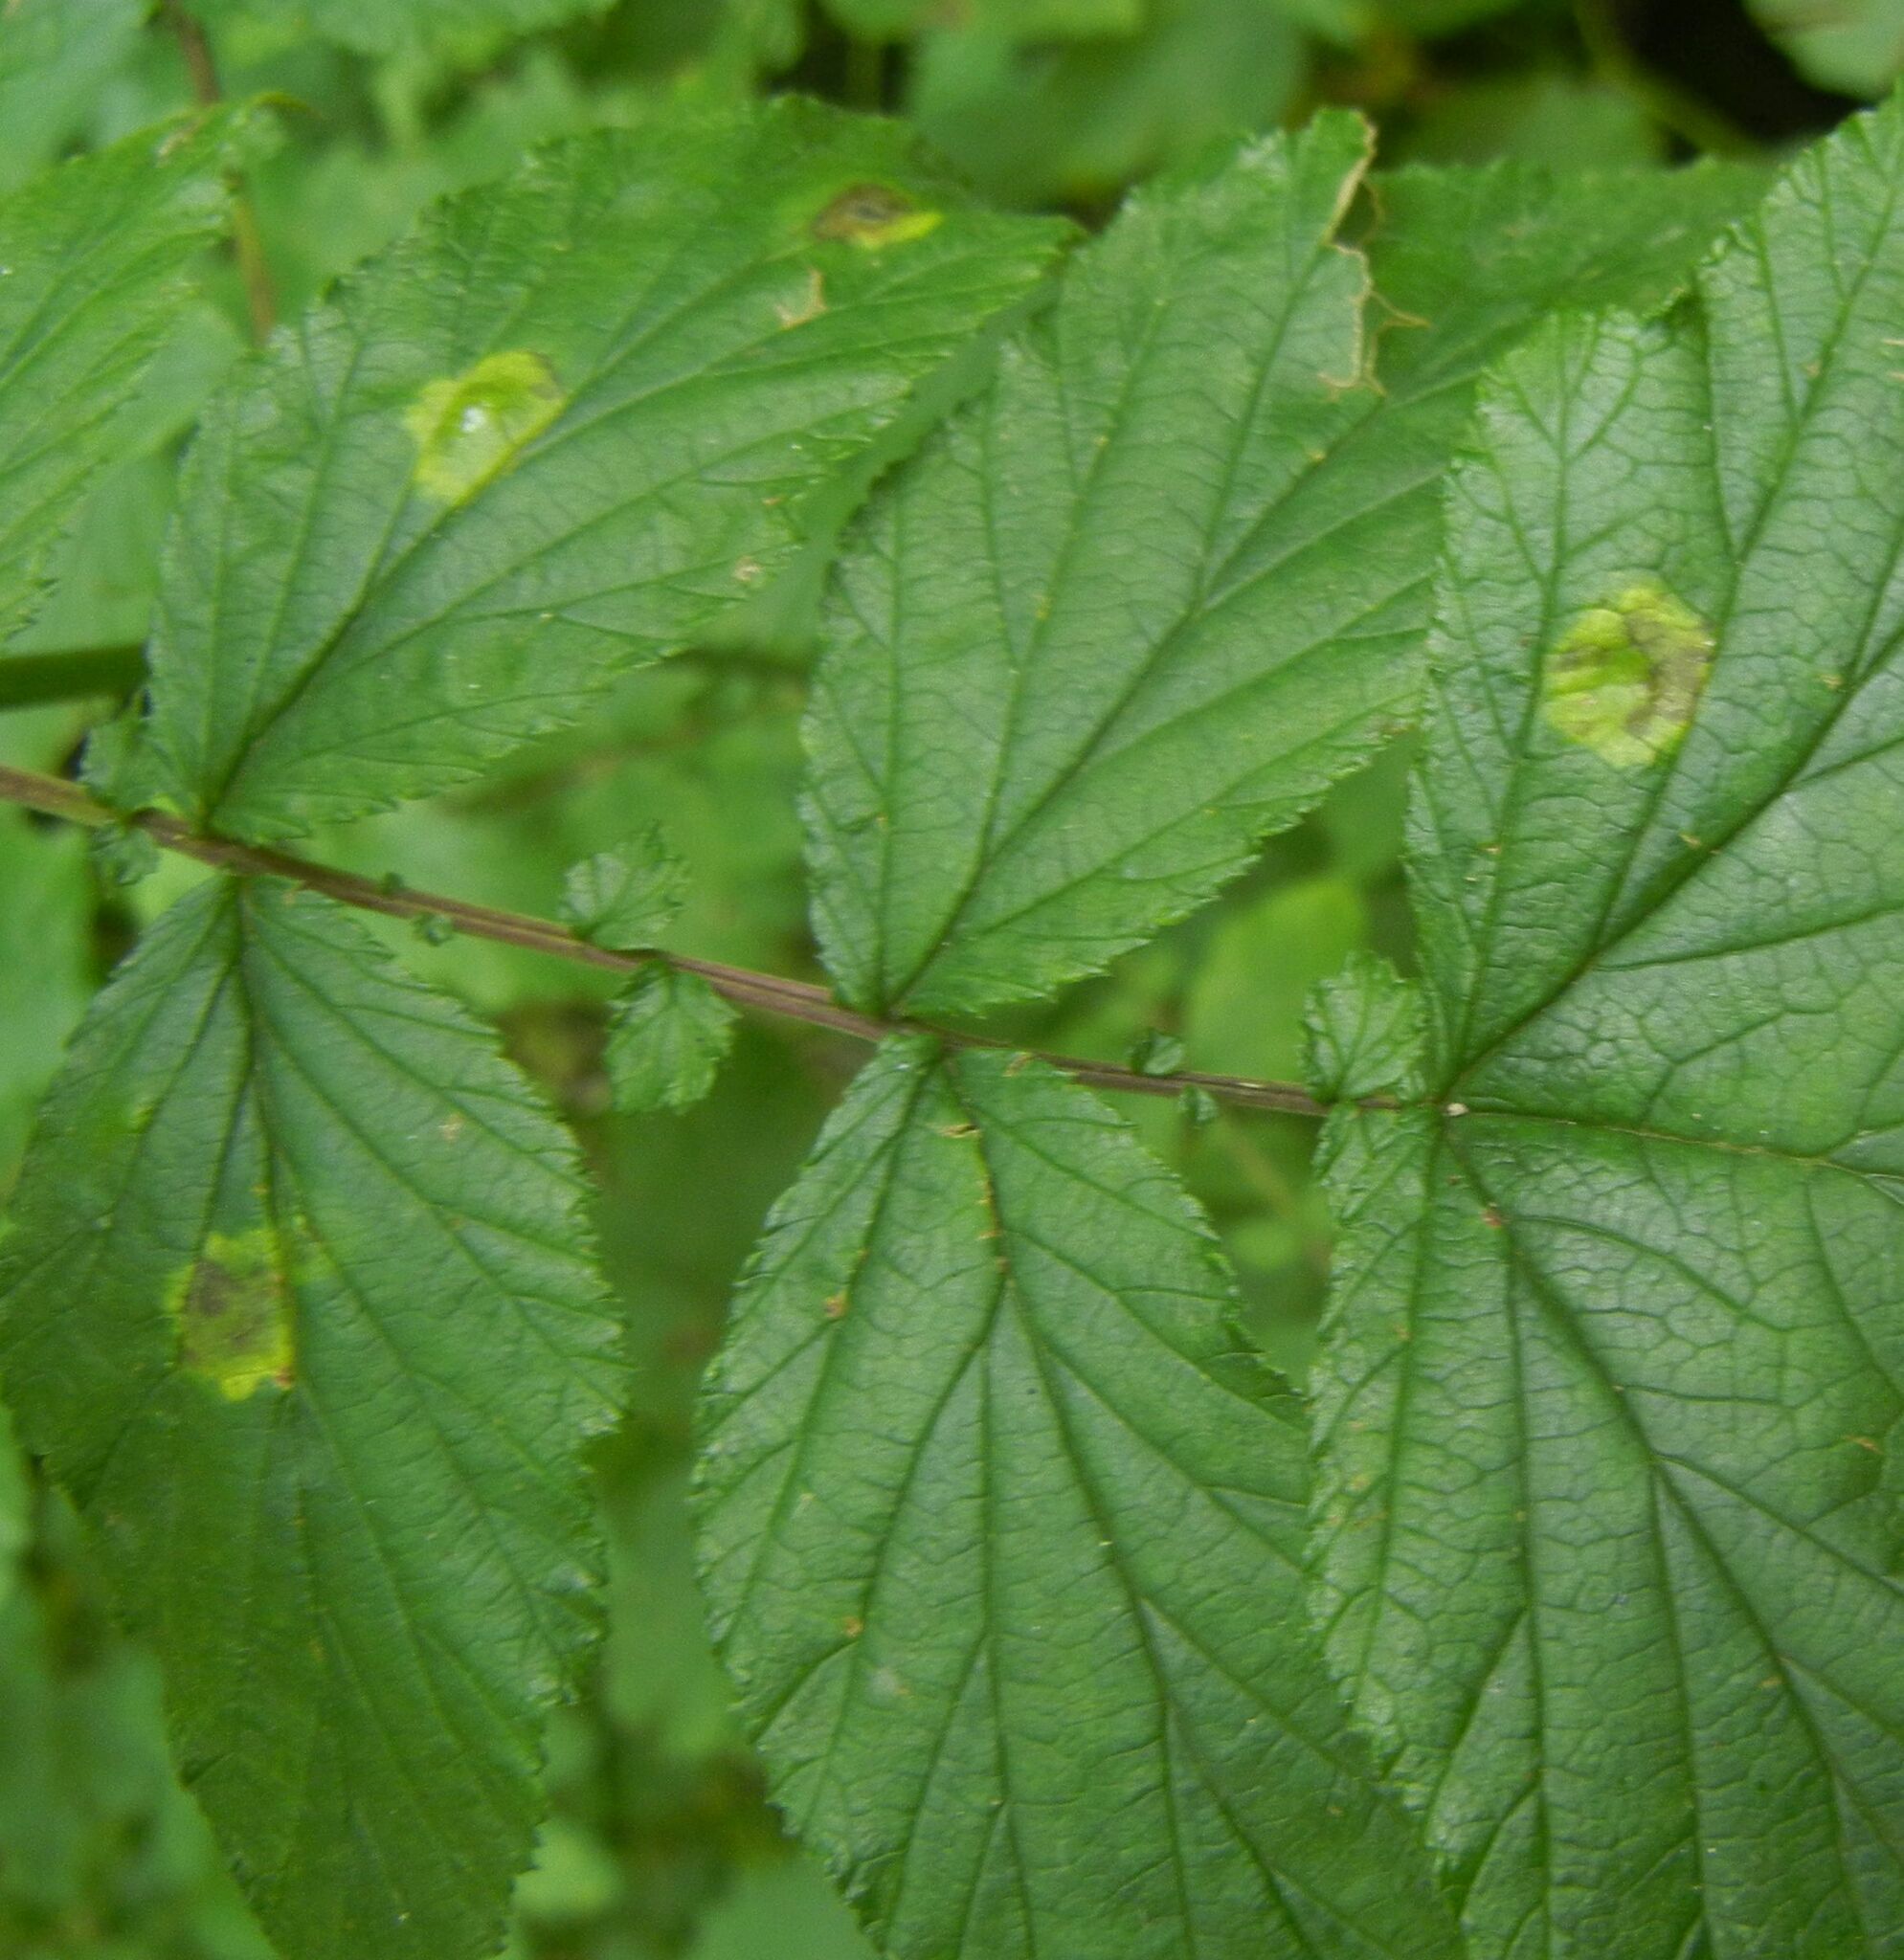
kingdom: Animalia
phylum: Arthropoda
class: Insecta
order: Diptera
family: Cecidomyiidae
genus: Dasineura
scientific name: Dasineura pustulans
